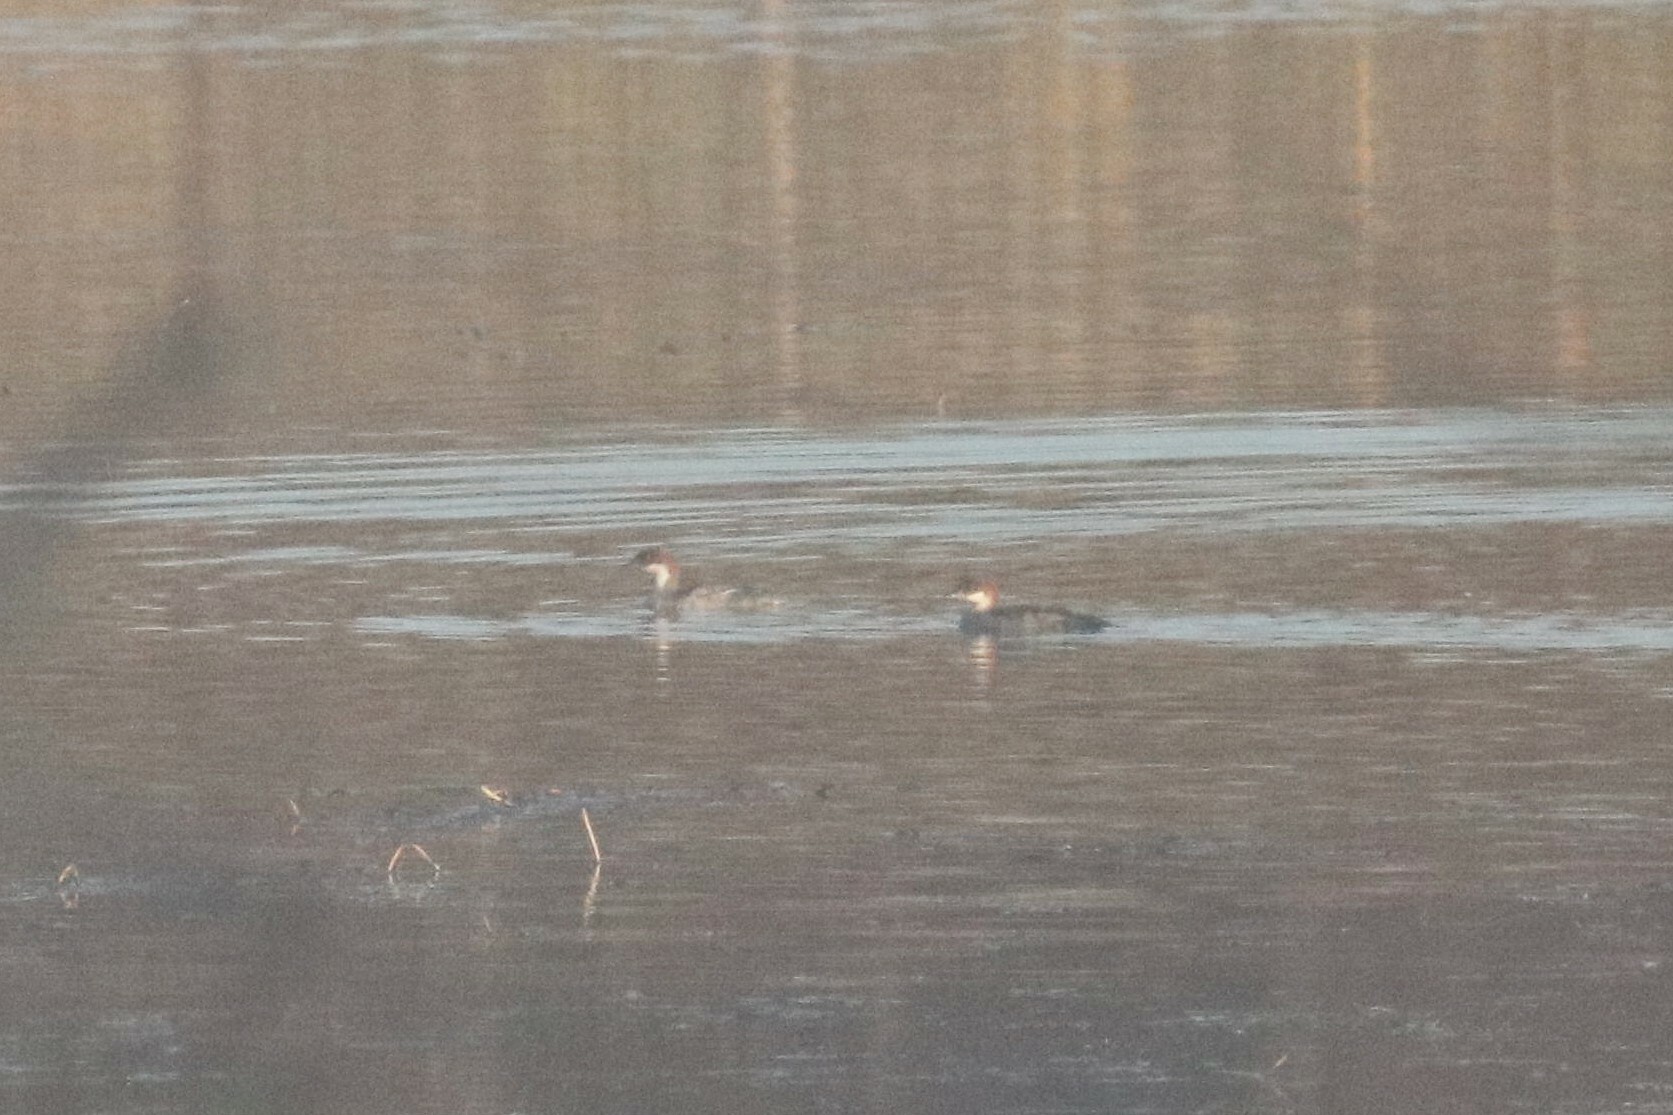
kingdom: Animalia
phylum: Chordata
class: Aves
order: Anseriformes
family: Anatidae
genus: Mergellus
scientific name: Mergellus albellus
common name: Smew
